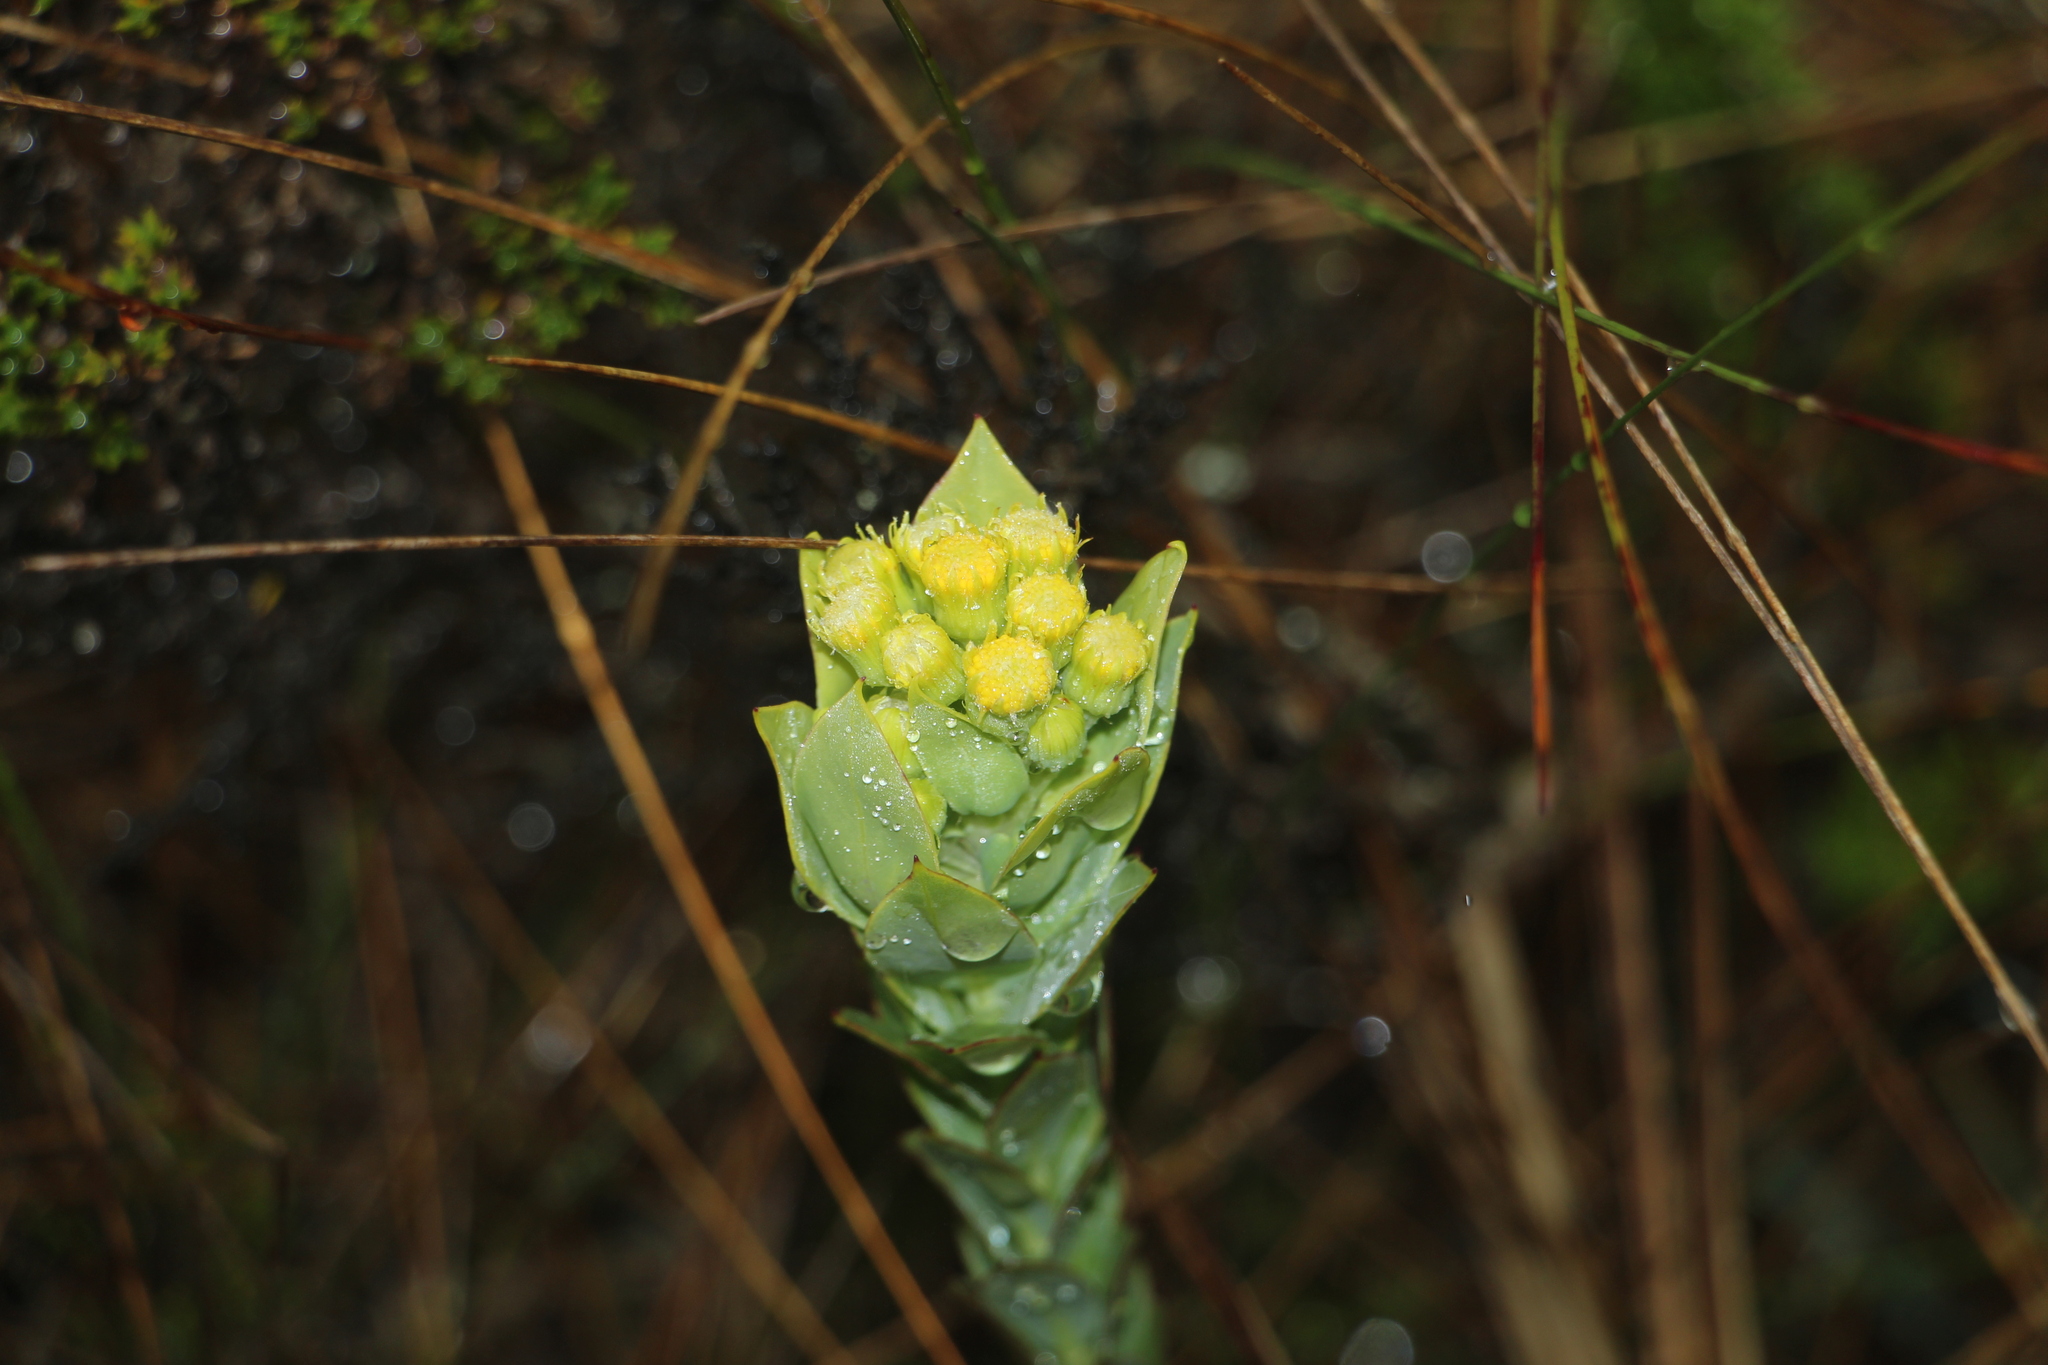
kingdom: Plantae
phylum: Tracheophyta
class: Magnoliopsida
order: Asterales
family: Asteraceae
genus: Monticalia
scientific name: Monticalia vaccinioides
